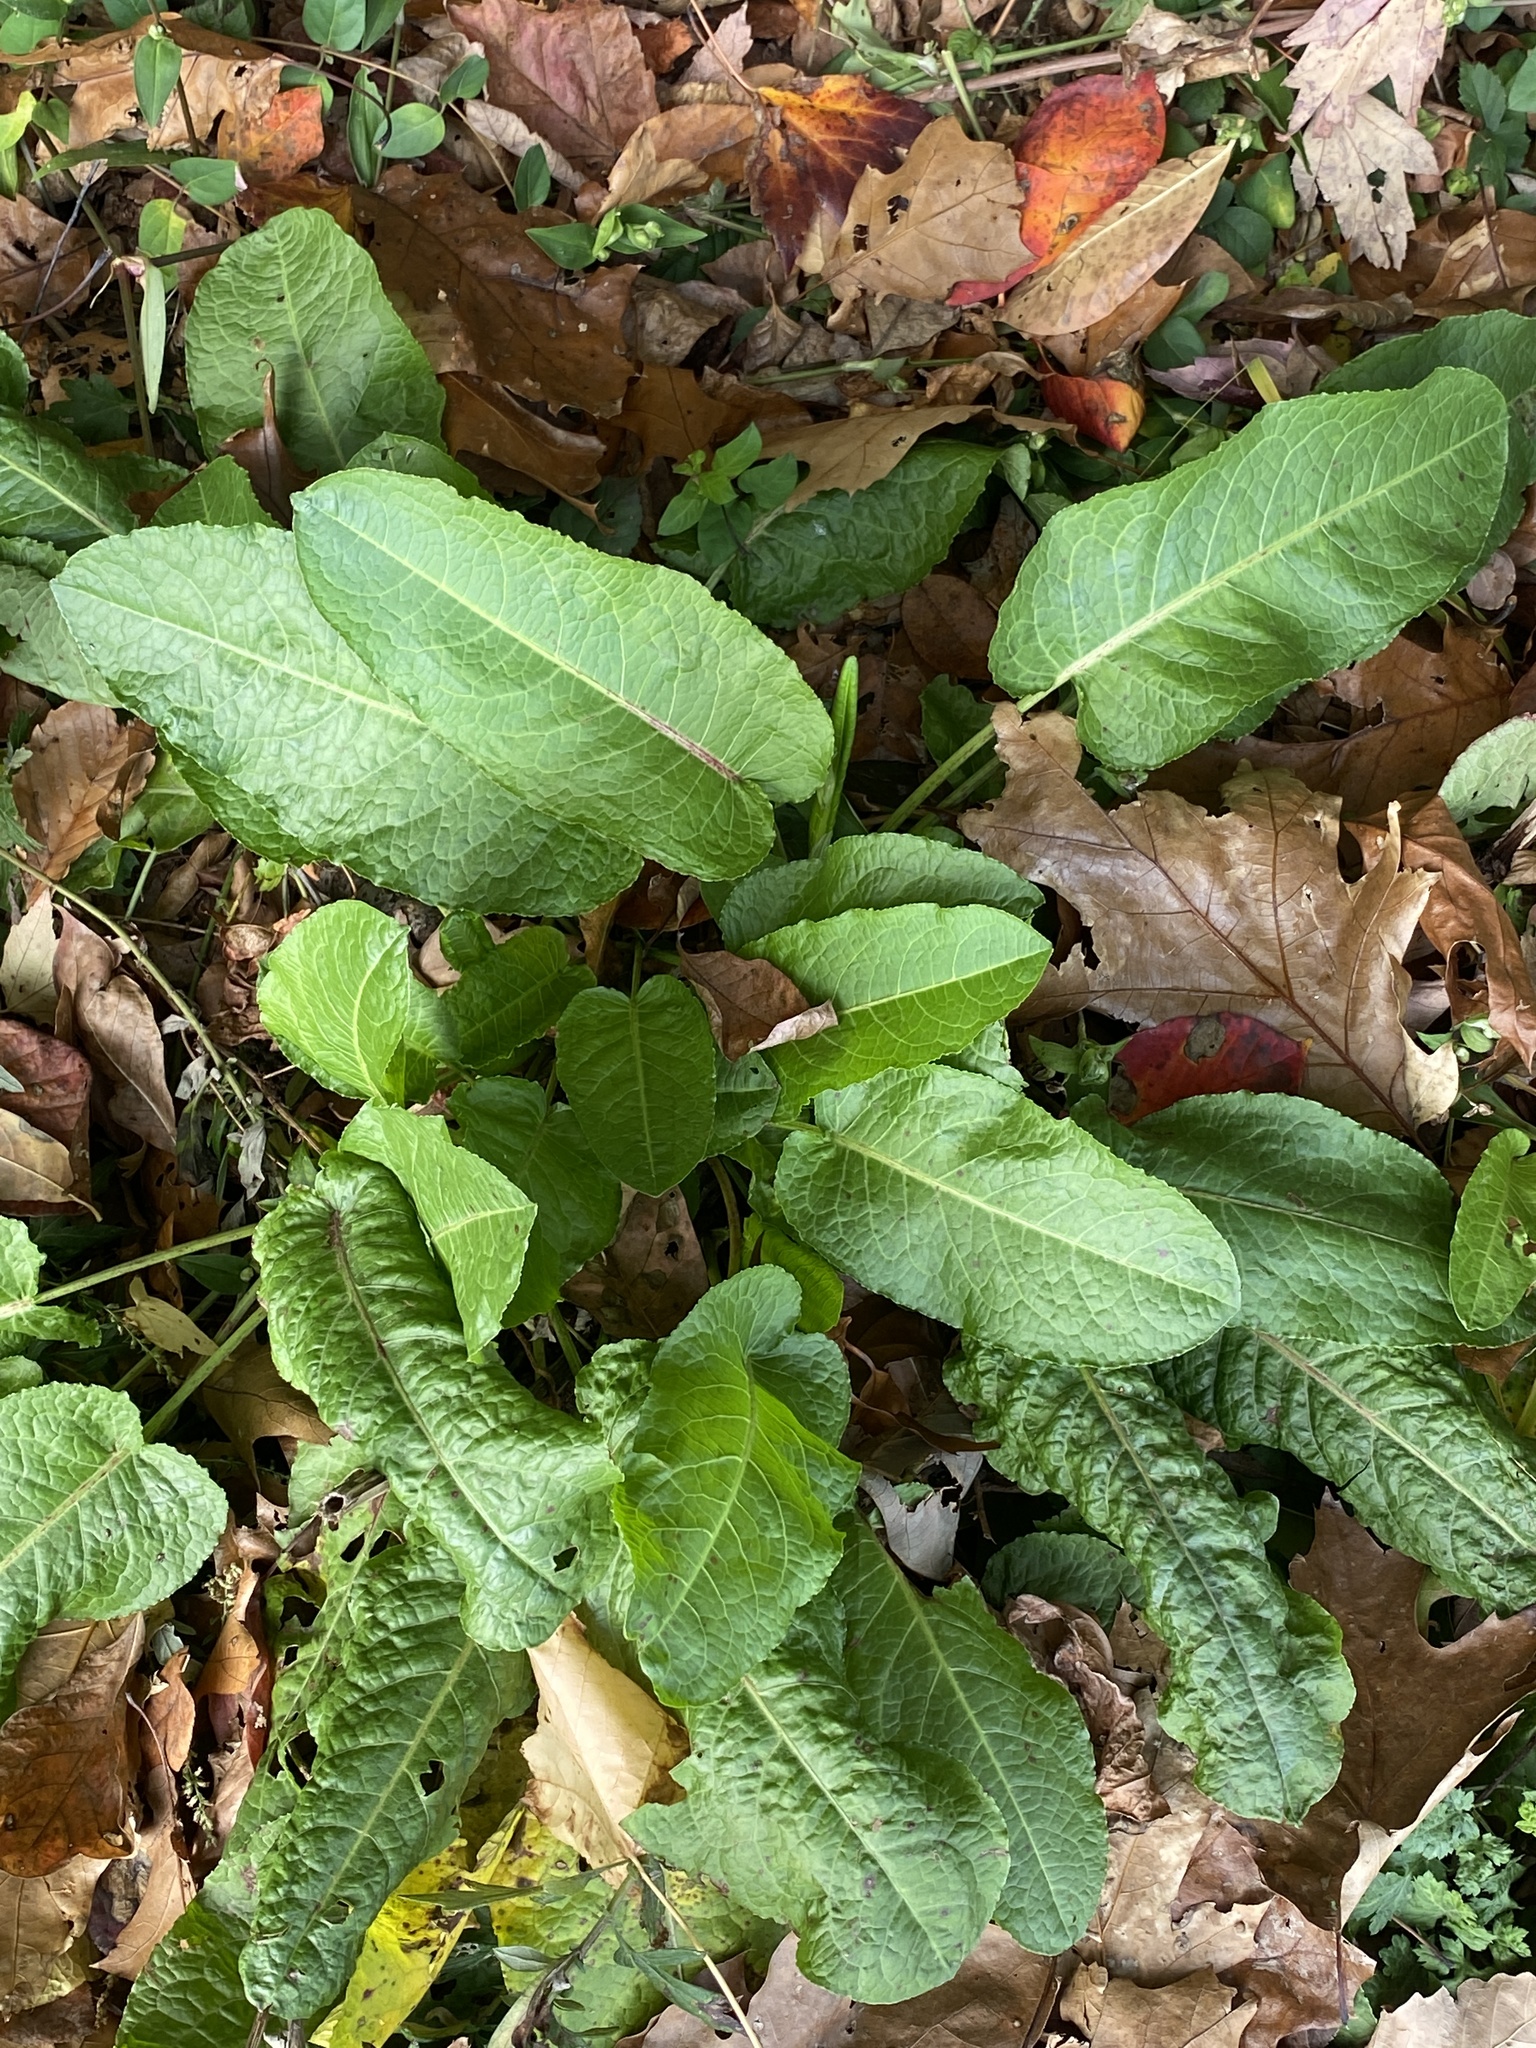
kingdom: Plantae
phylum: Tracheophyta
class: Magnoliopsida
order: Caryophyllales
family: Polygonaceae
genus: Rumex
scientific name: Rumex obtusifolius
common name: Bitter dock
